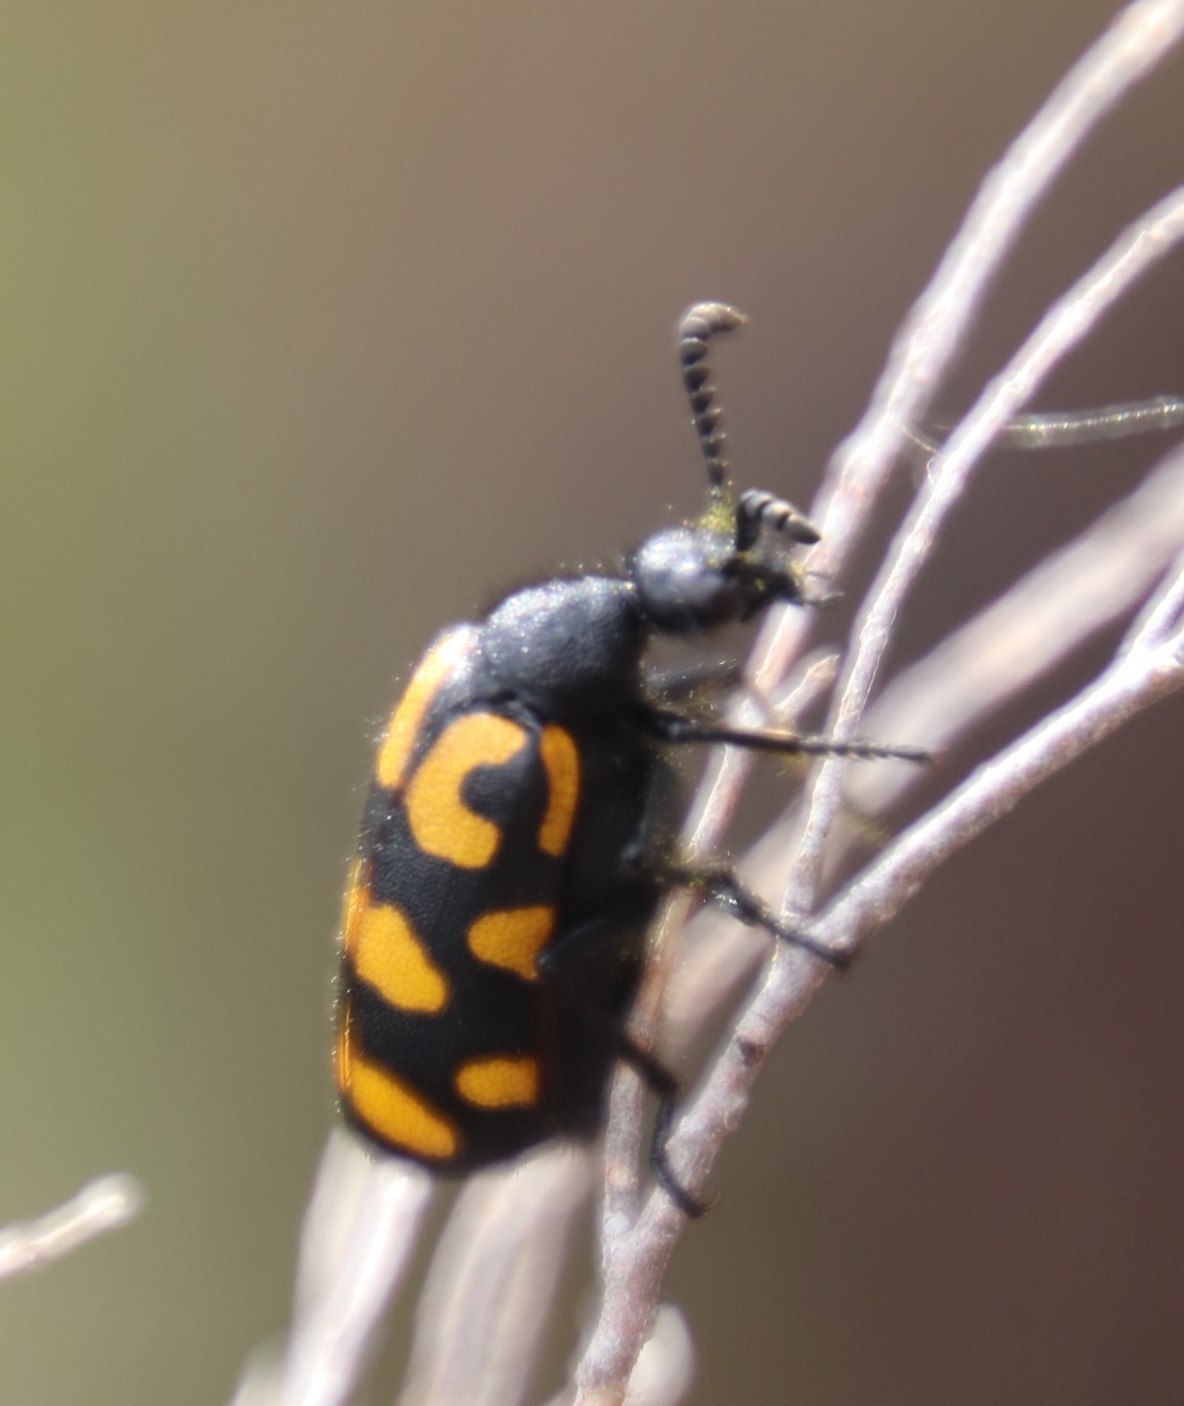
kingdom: Animalia
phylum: Arthropoda
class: Insecta
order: Coleoptera
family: Meloidae
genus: Ceroctis
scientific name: Ceroctis capensis
